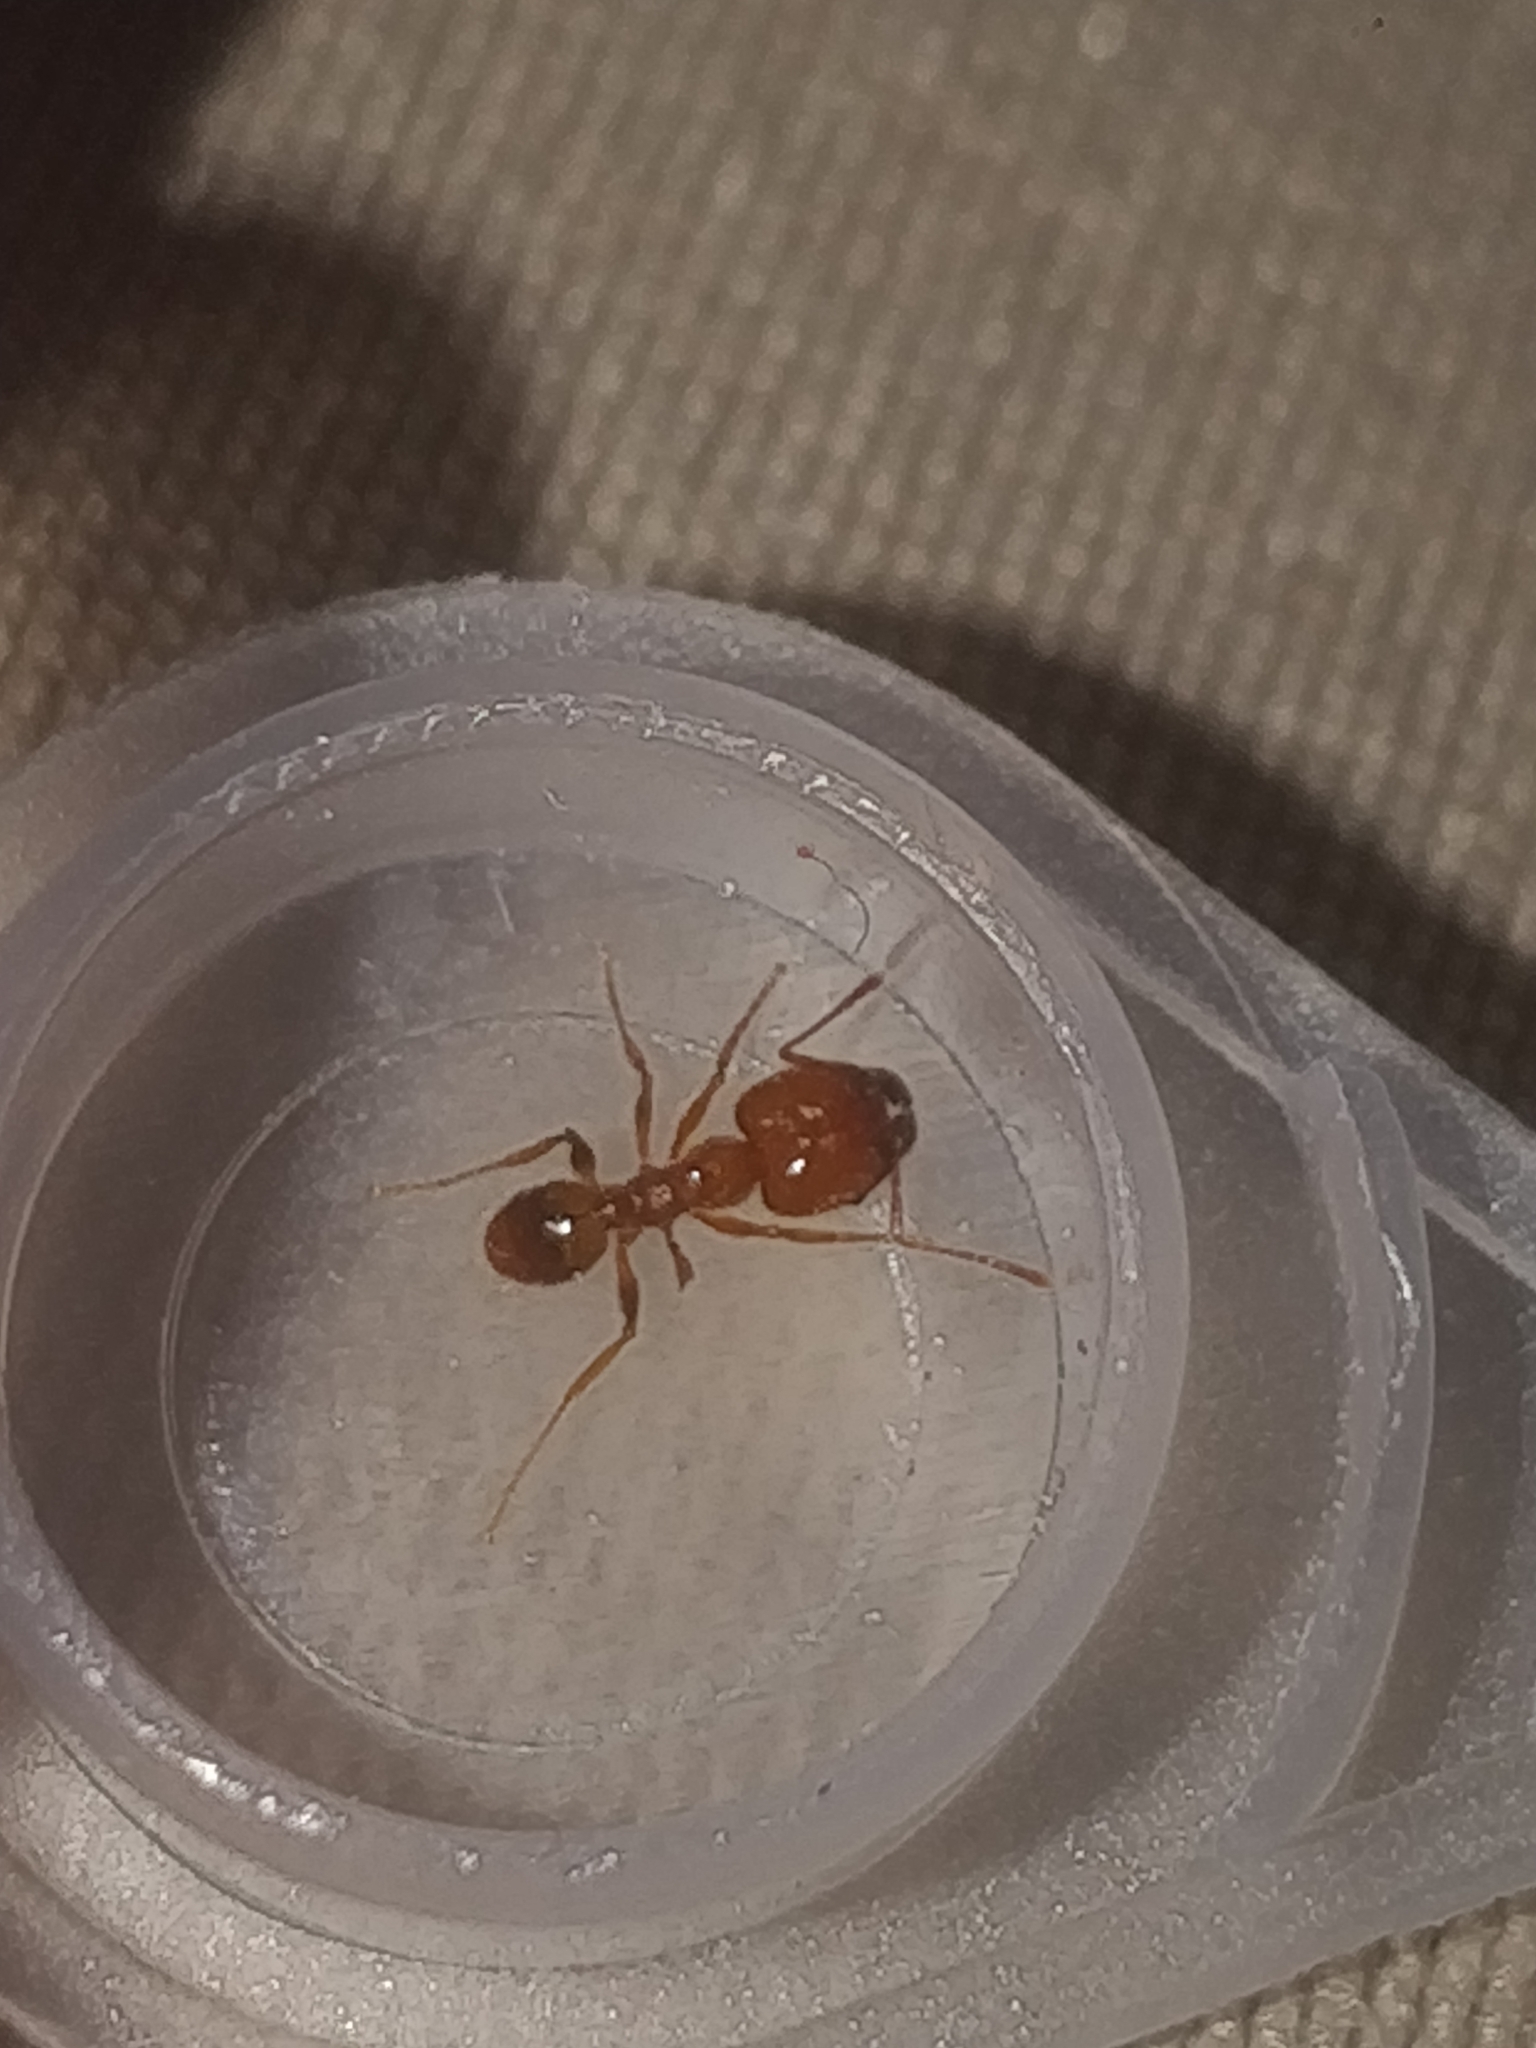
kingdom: Animalia
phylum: Arthropoda
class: Insecta
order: Hymenoptera
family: Formicidae
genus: Pheidole
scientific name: Pheidole dentata
